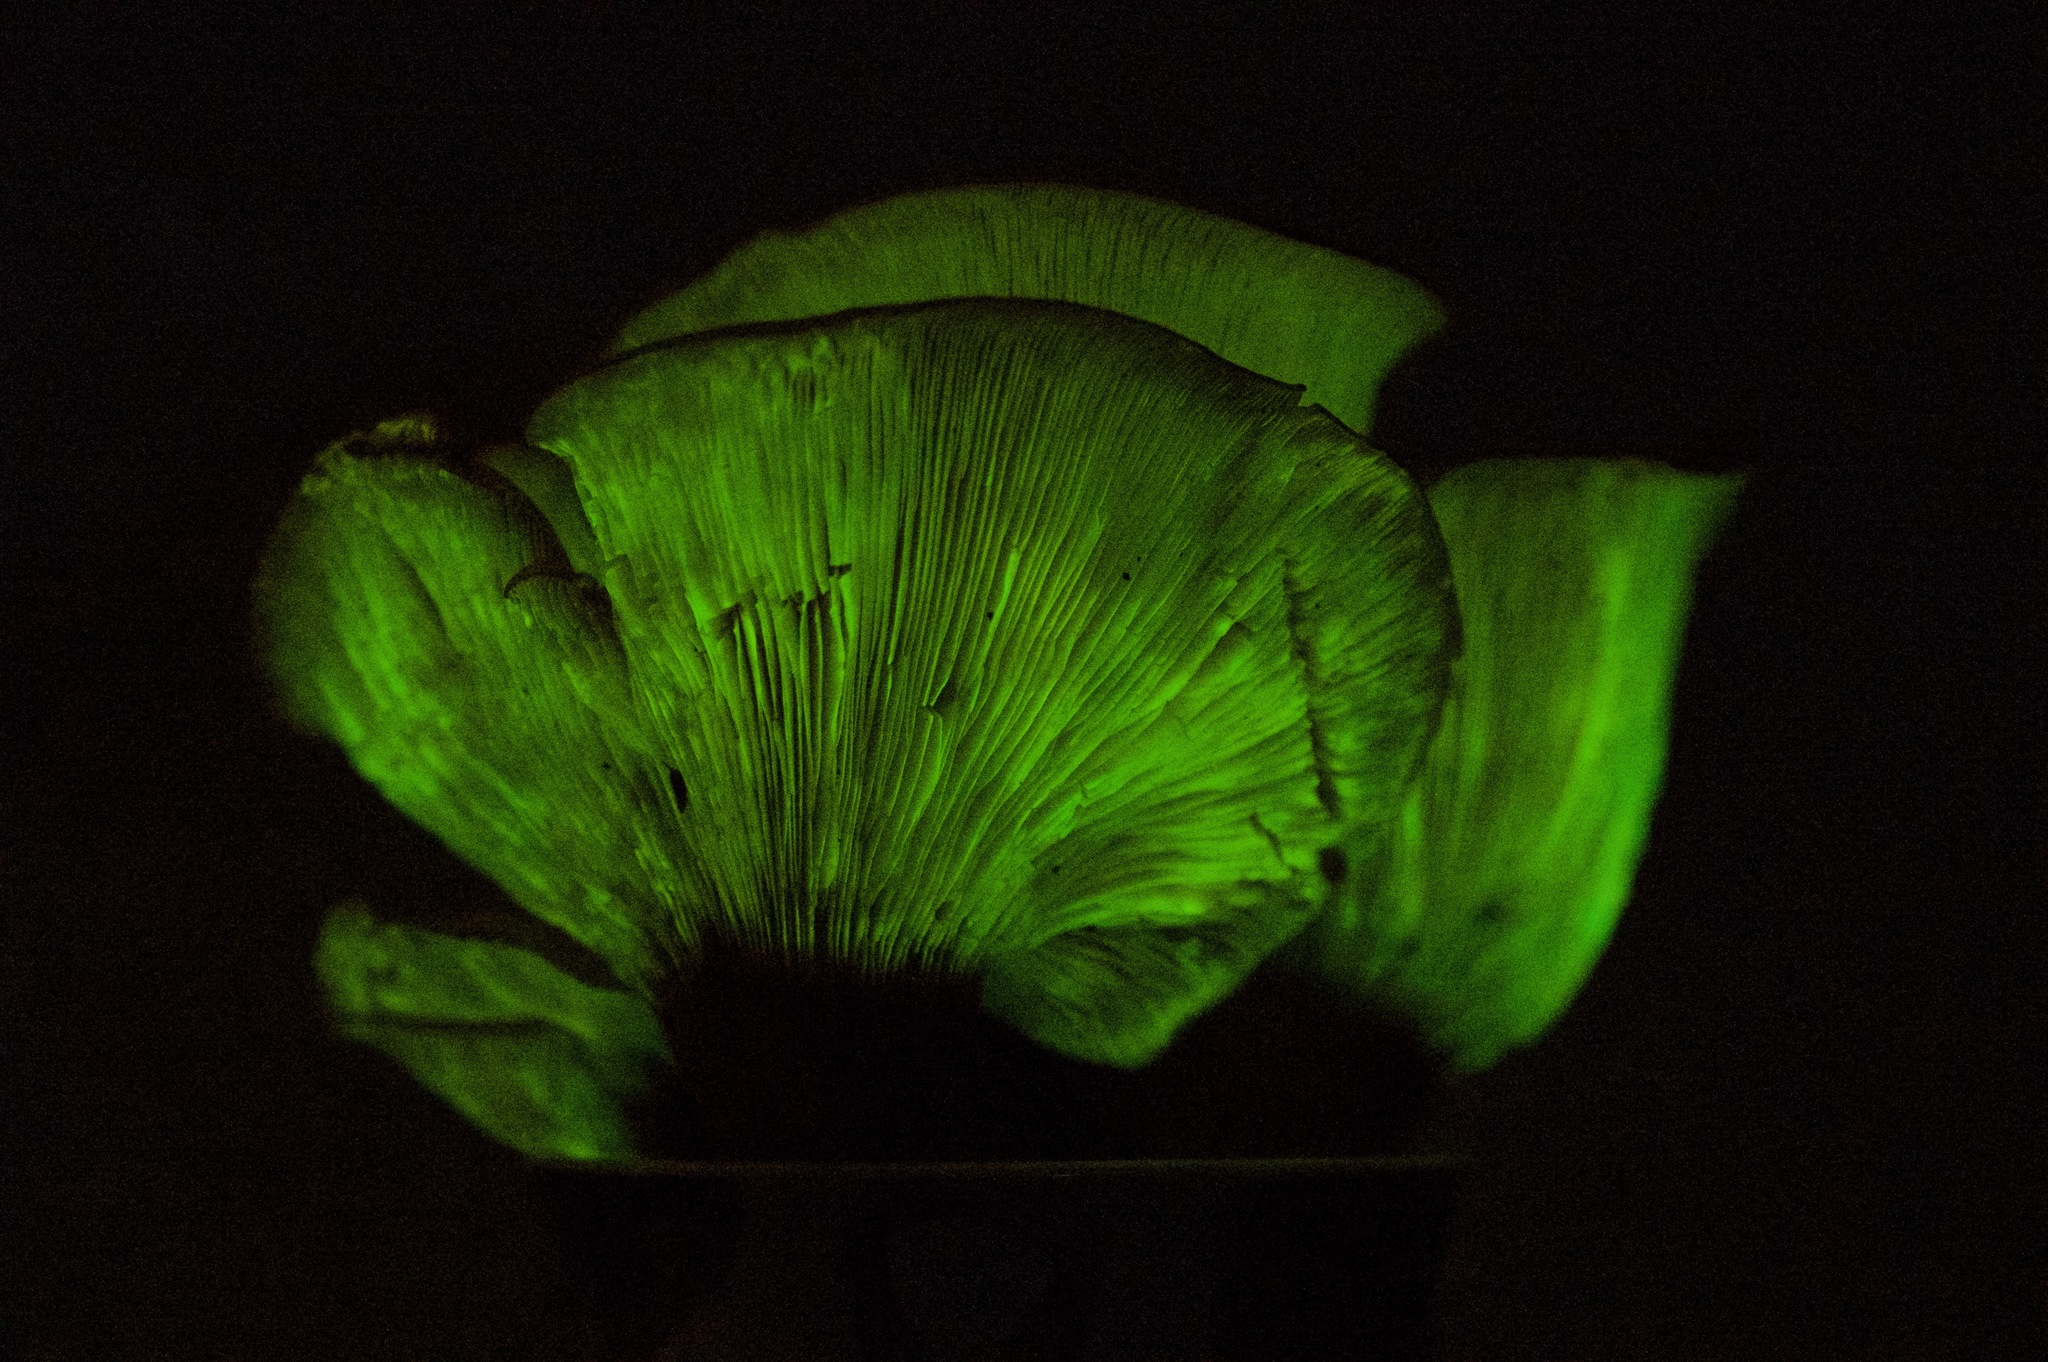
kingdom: Fungi
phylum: Basidiomycota
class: Agaricomycetes
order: Agaricales
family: Omphalotaceae
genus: Omphalotus
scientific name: Omphalotus subilludens
